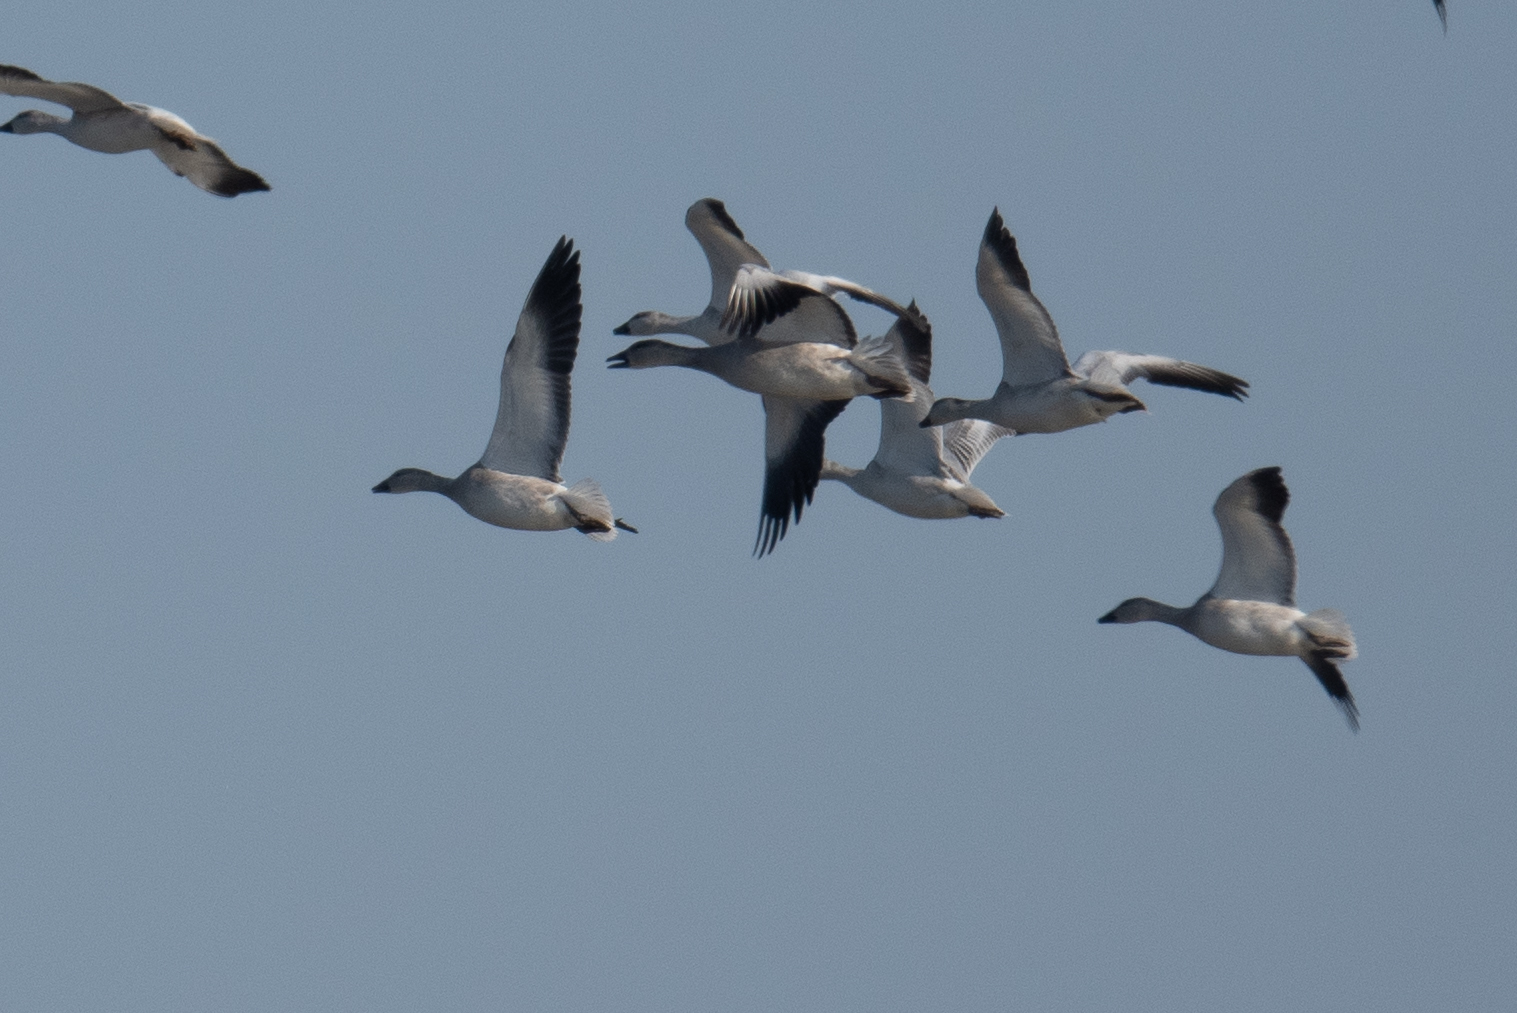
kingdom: Animalia
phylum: Chordata
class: Aves
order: Anseriformes
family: Anatidae
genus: Anser
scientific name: Anser caerulescens
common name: Snow goose
